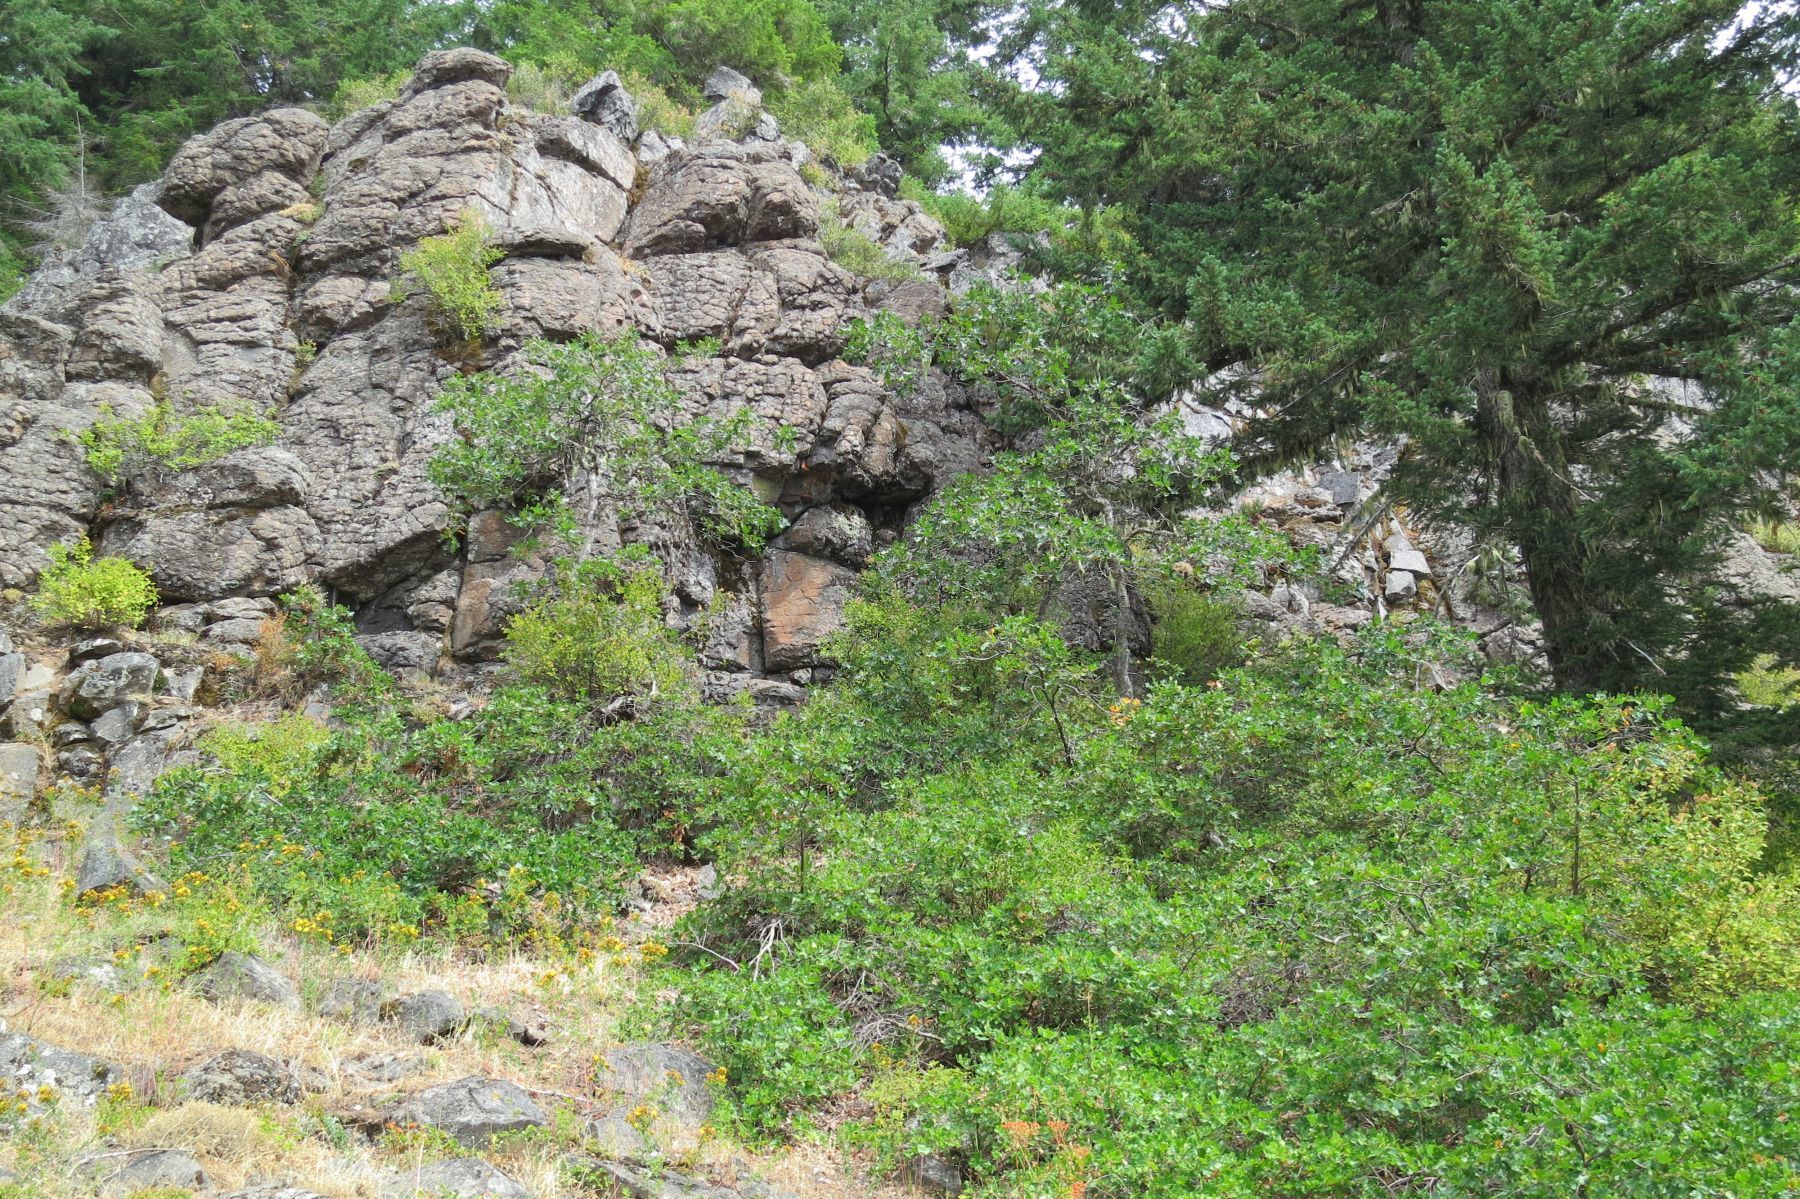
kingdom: Plantae
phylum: Tracheophyta
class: Magnoliopsida
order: Fagales
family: Fagaceae
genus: Quercus
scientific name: Quercus garryana
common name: Garry oak
